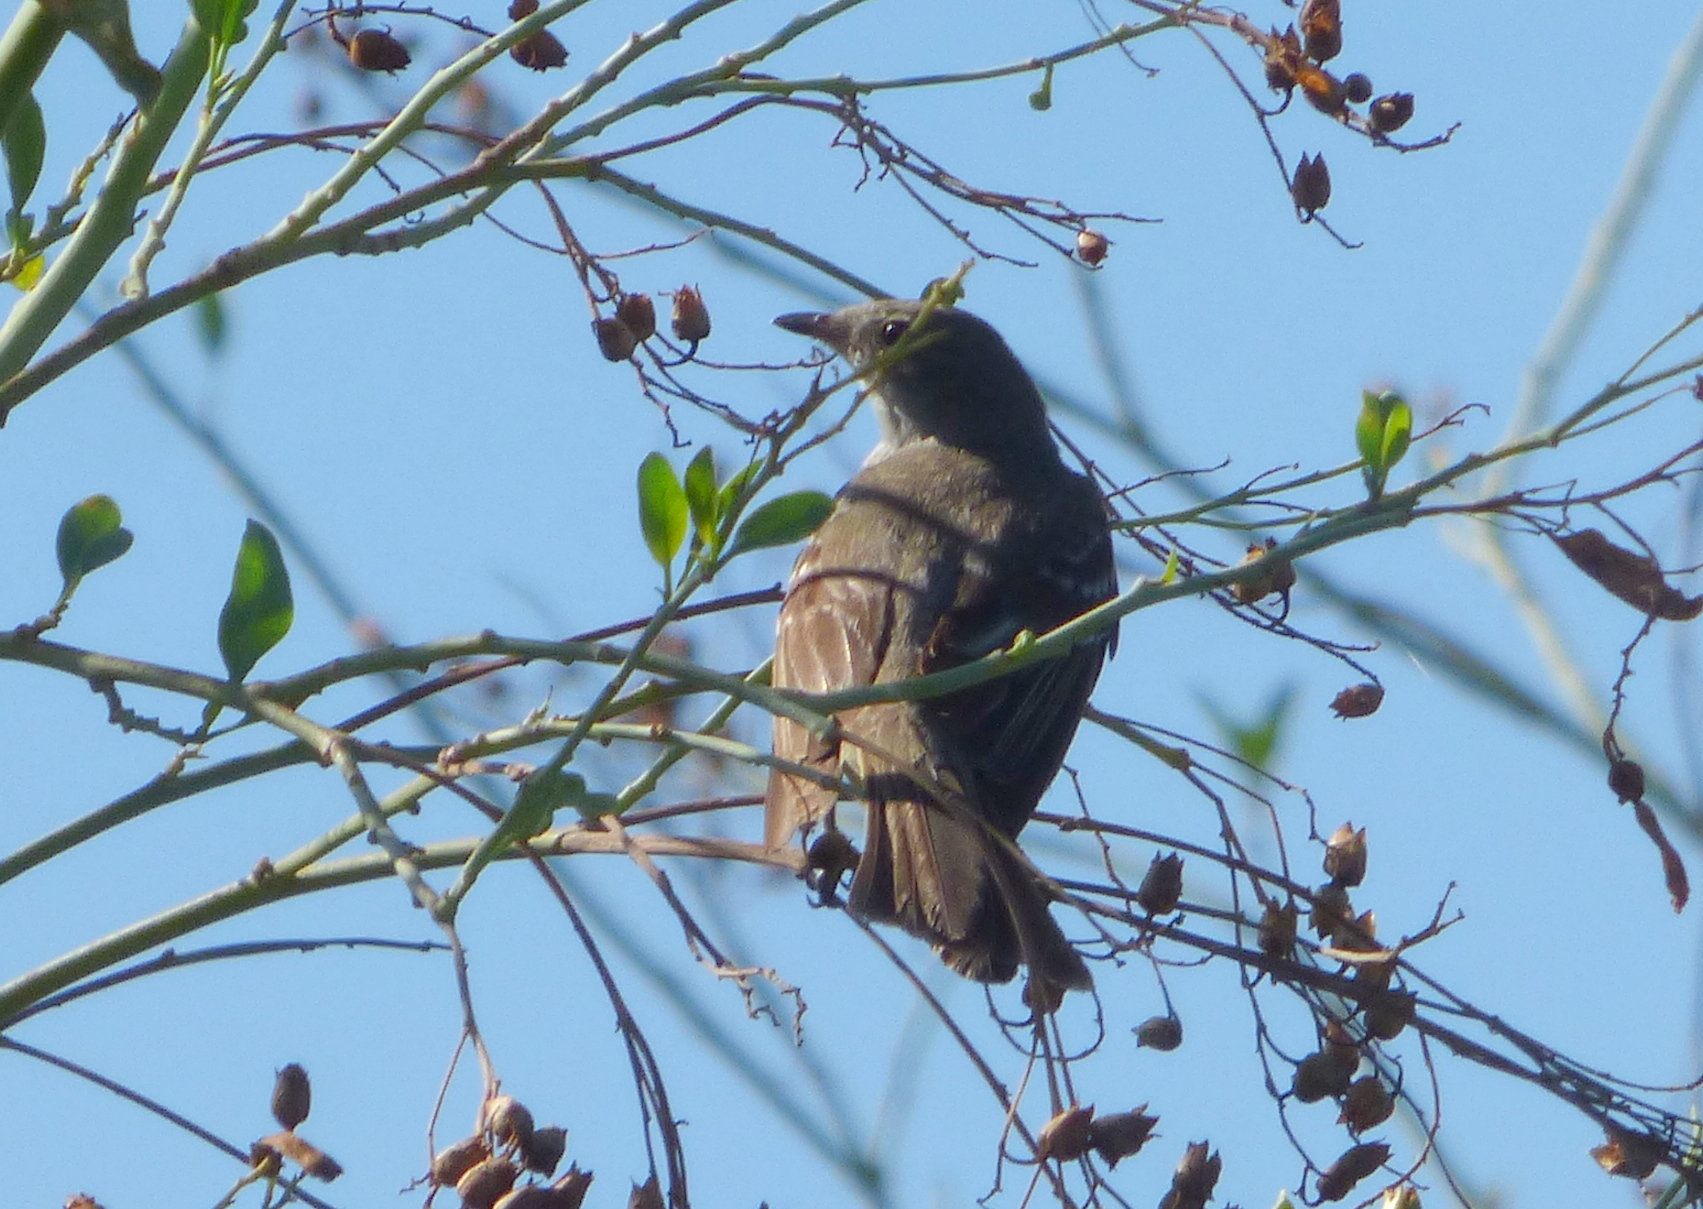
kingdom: Animalia
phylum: Chordata
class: Aves
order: Passeriformes
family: Tyrannidae
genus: Elaenia
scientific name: Elaenia spectabilis
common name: Large elaenia
